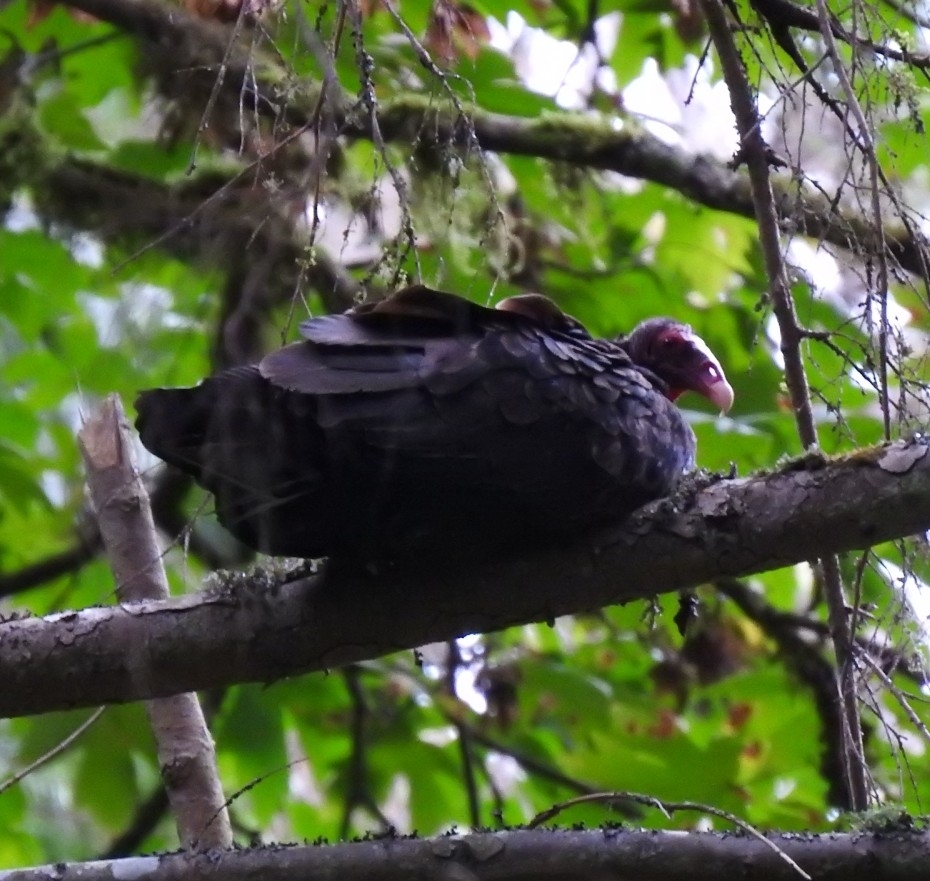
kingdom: Animalia
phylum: Chordata
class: Aves
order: Accipitriformes
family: Cathartidae
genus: Cathartes
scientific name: Cathartes aura
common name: Turkey vulture
